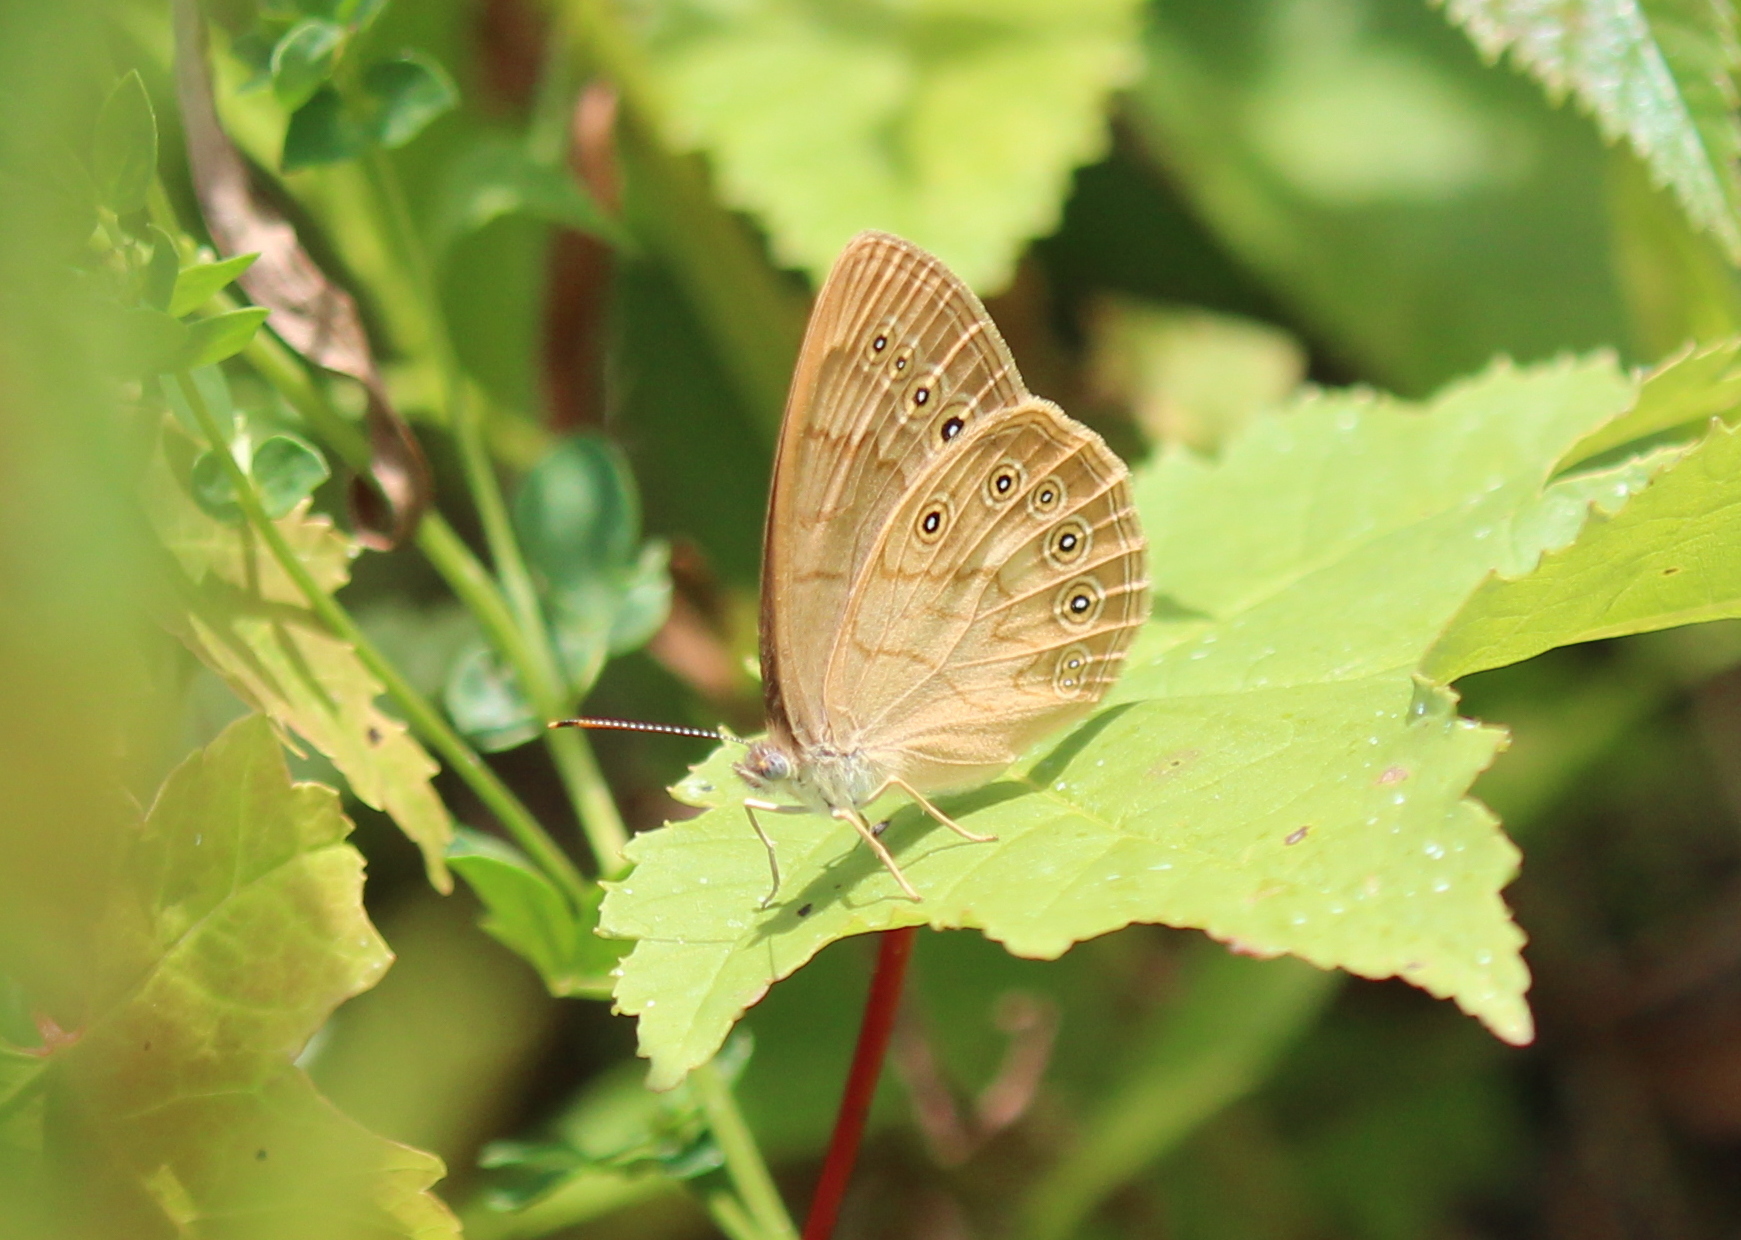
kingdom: Animalia
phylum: Arthropoda
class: Insecta
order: Lepidoptera
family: Nymphalidae
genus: Lethe
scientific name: Lethe eurydice
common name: Eyed brown
